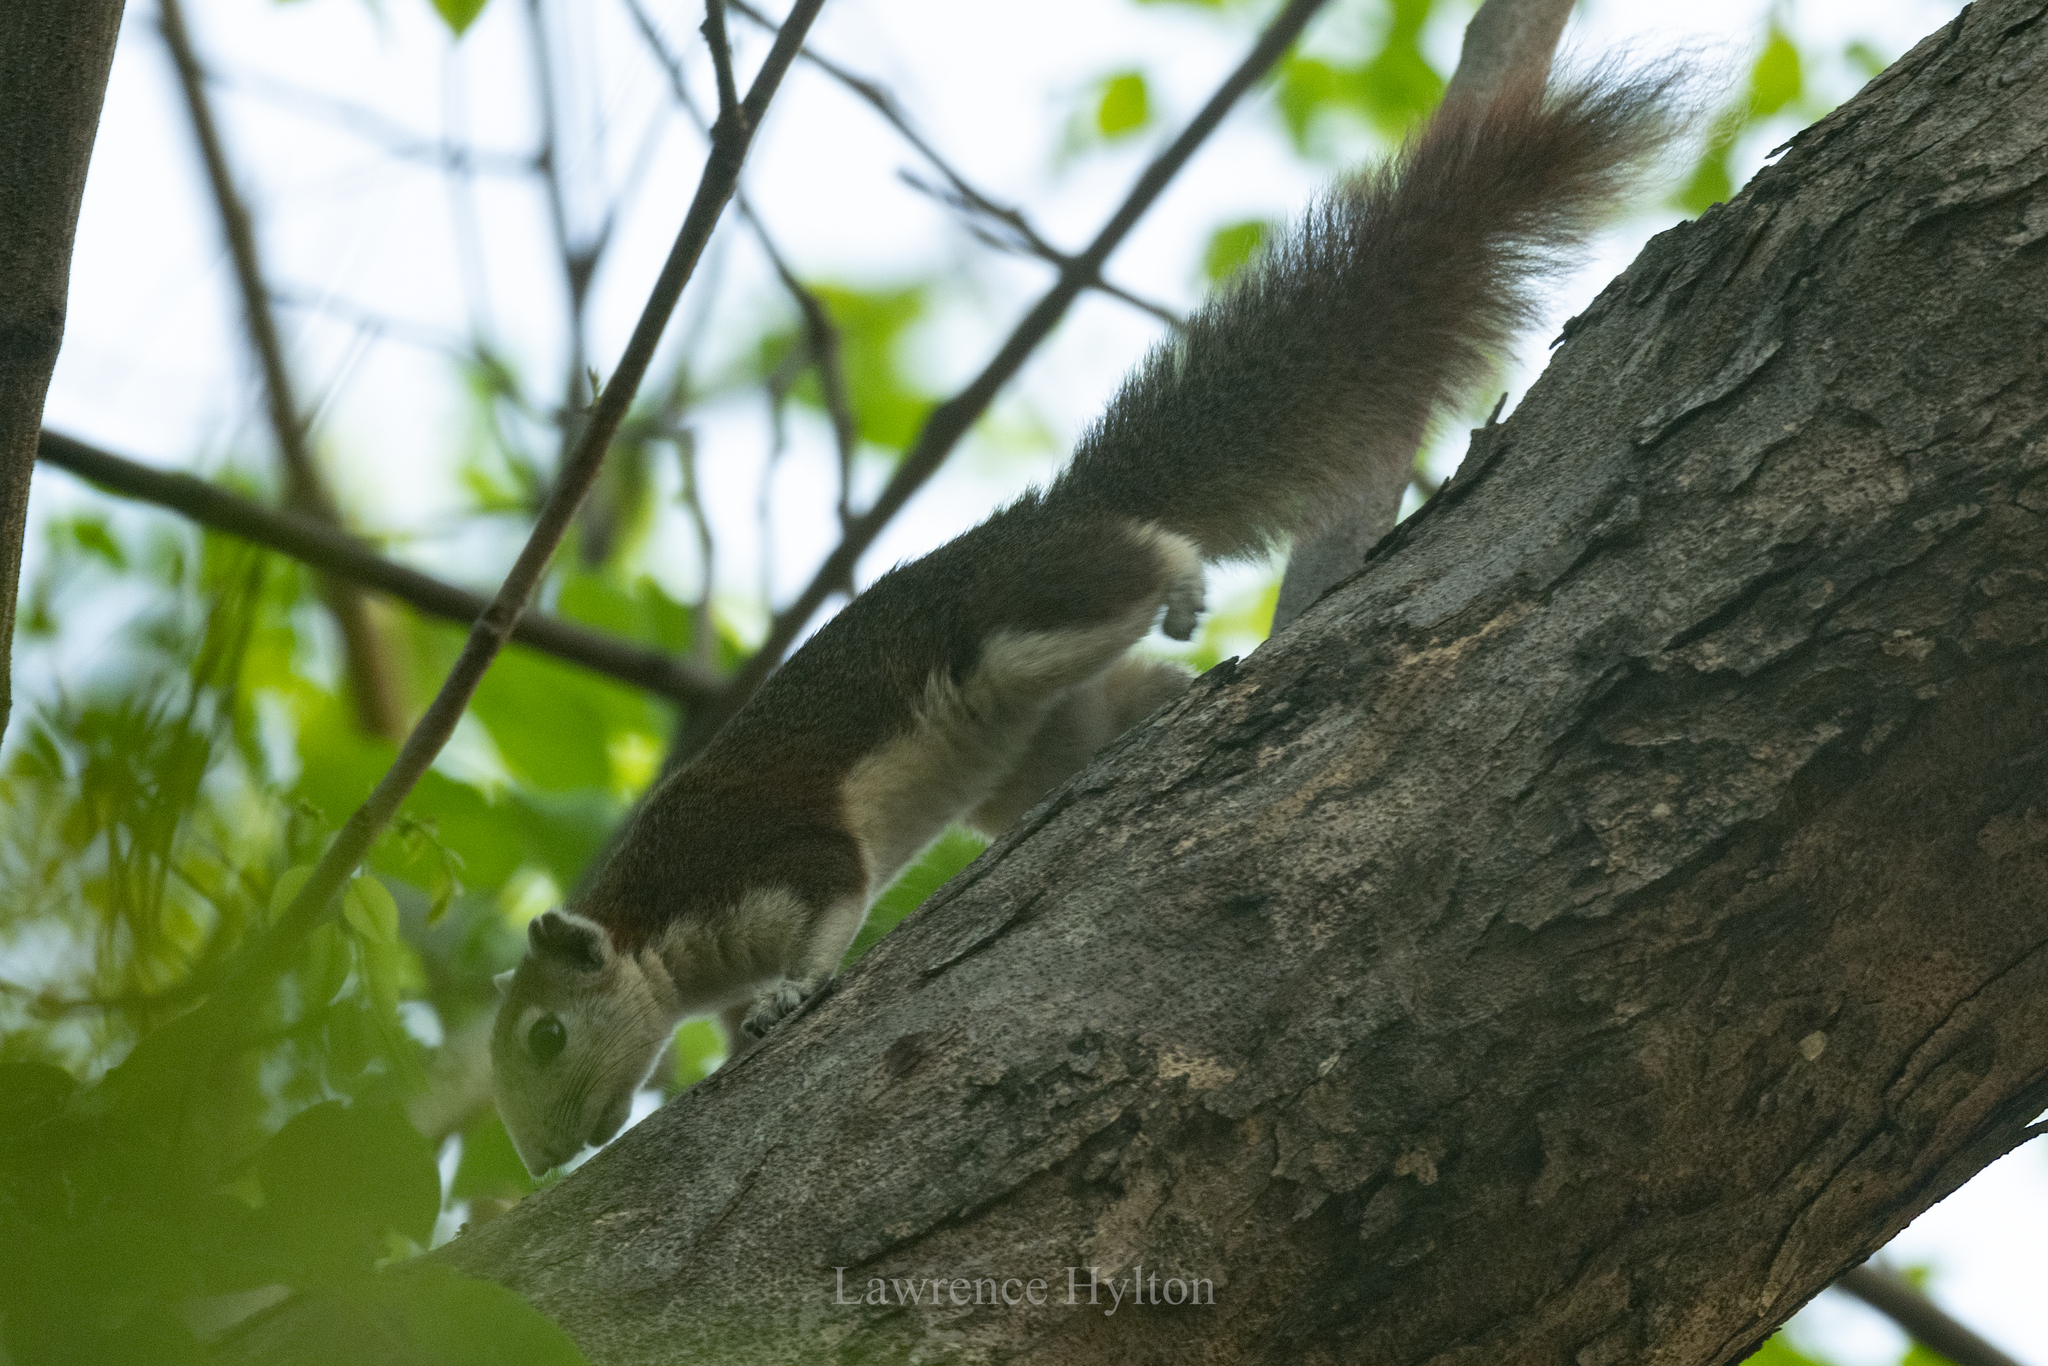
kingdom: Animalia
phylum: Chordata
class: Mammalia
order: Rodentia
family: Sciuridae
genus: Callosciurus
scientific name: Callosciurus finlaysonii
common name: Finlayson's squirrel
